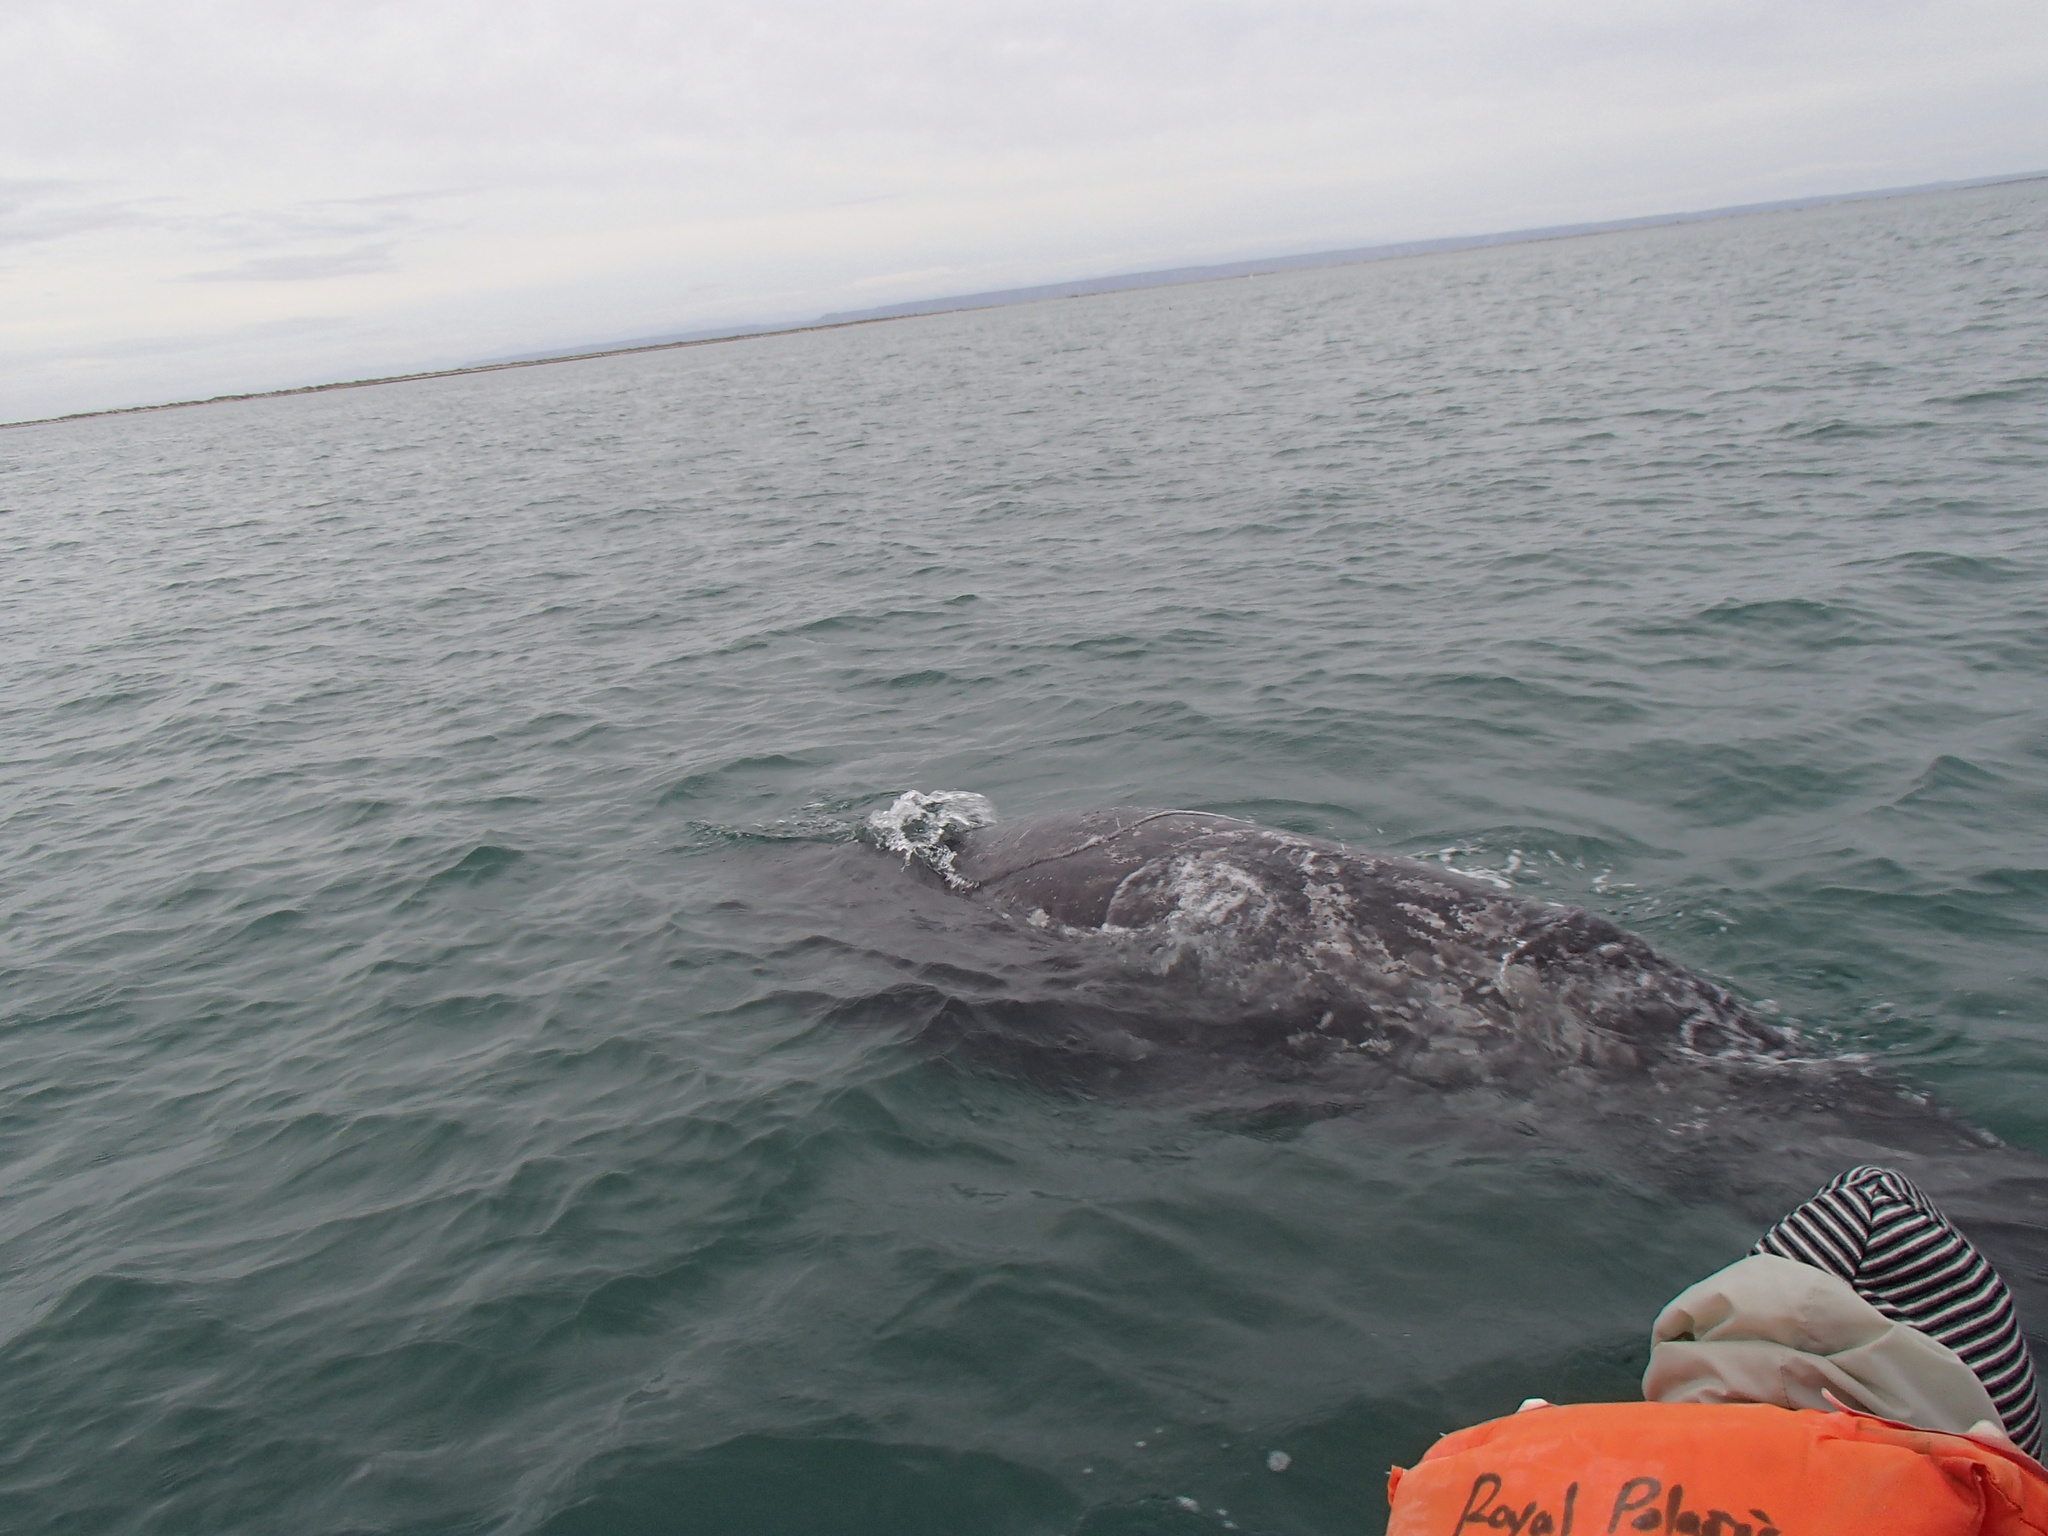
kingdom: Animalia
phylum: Chordata
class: Mammalia
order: Cetacea
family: Eschrichtiidae
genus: Eschrichtius
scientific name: Eschrichtius robustus
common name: Gray whale
